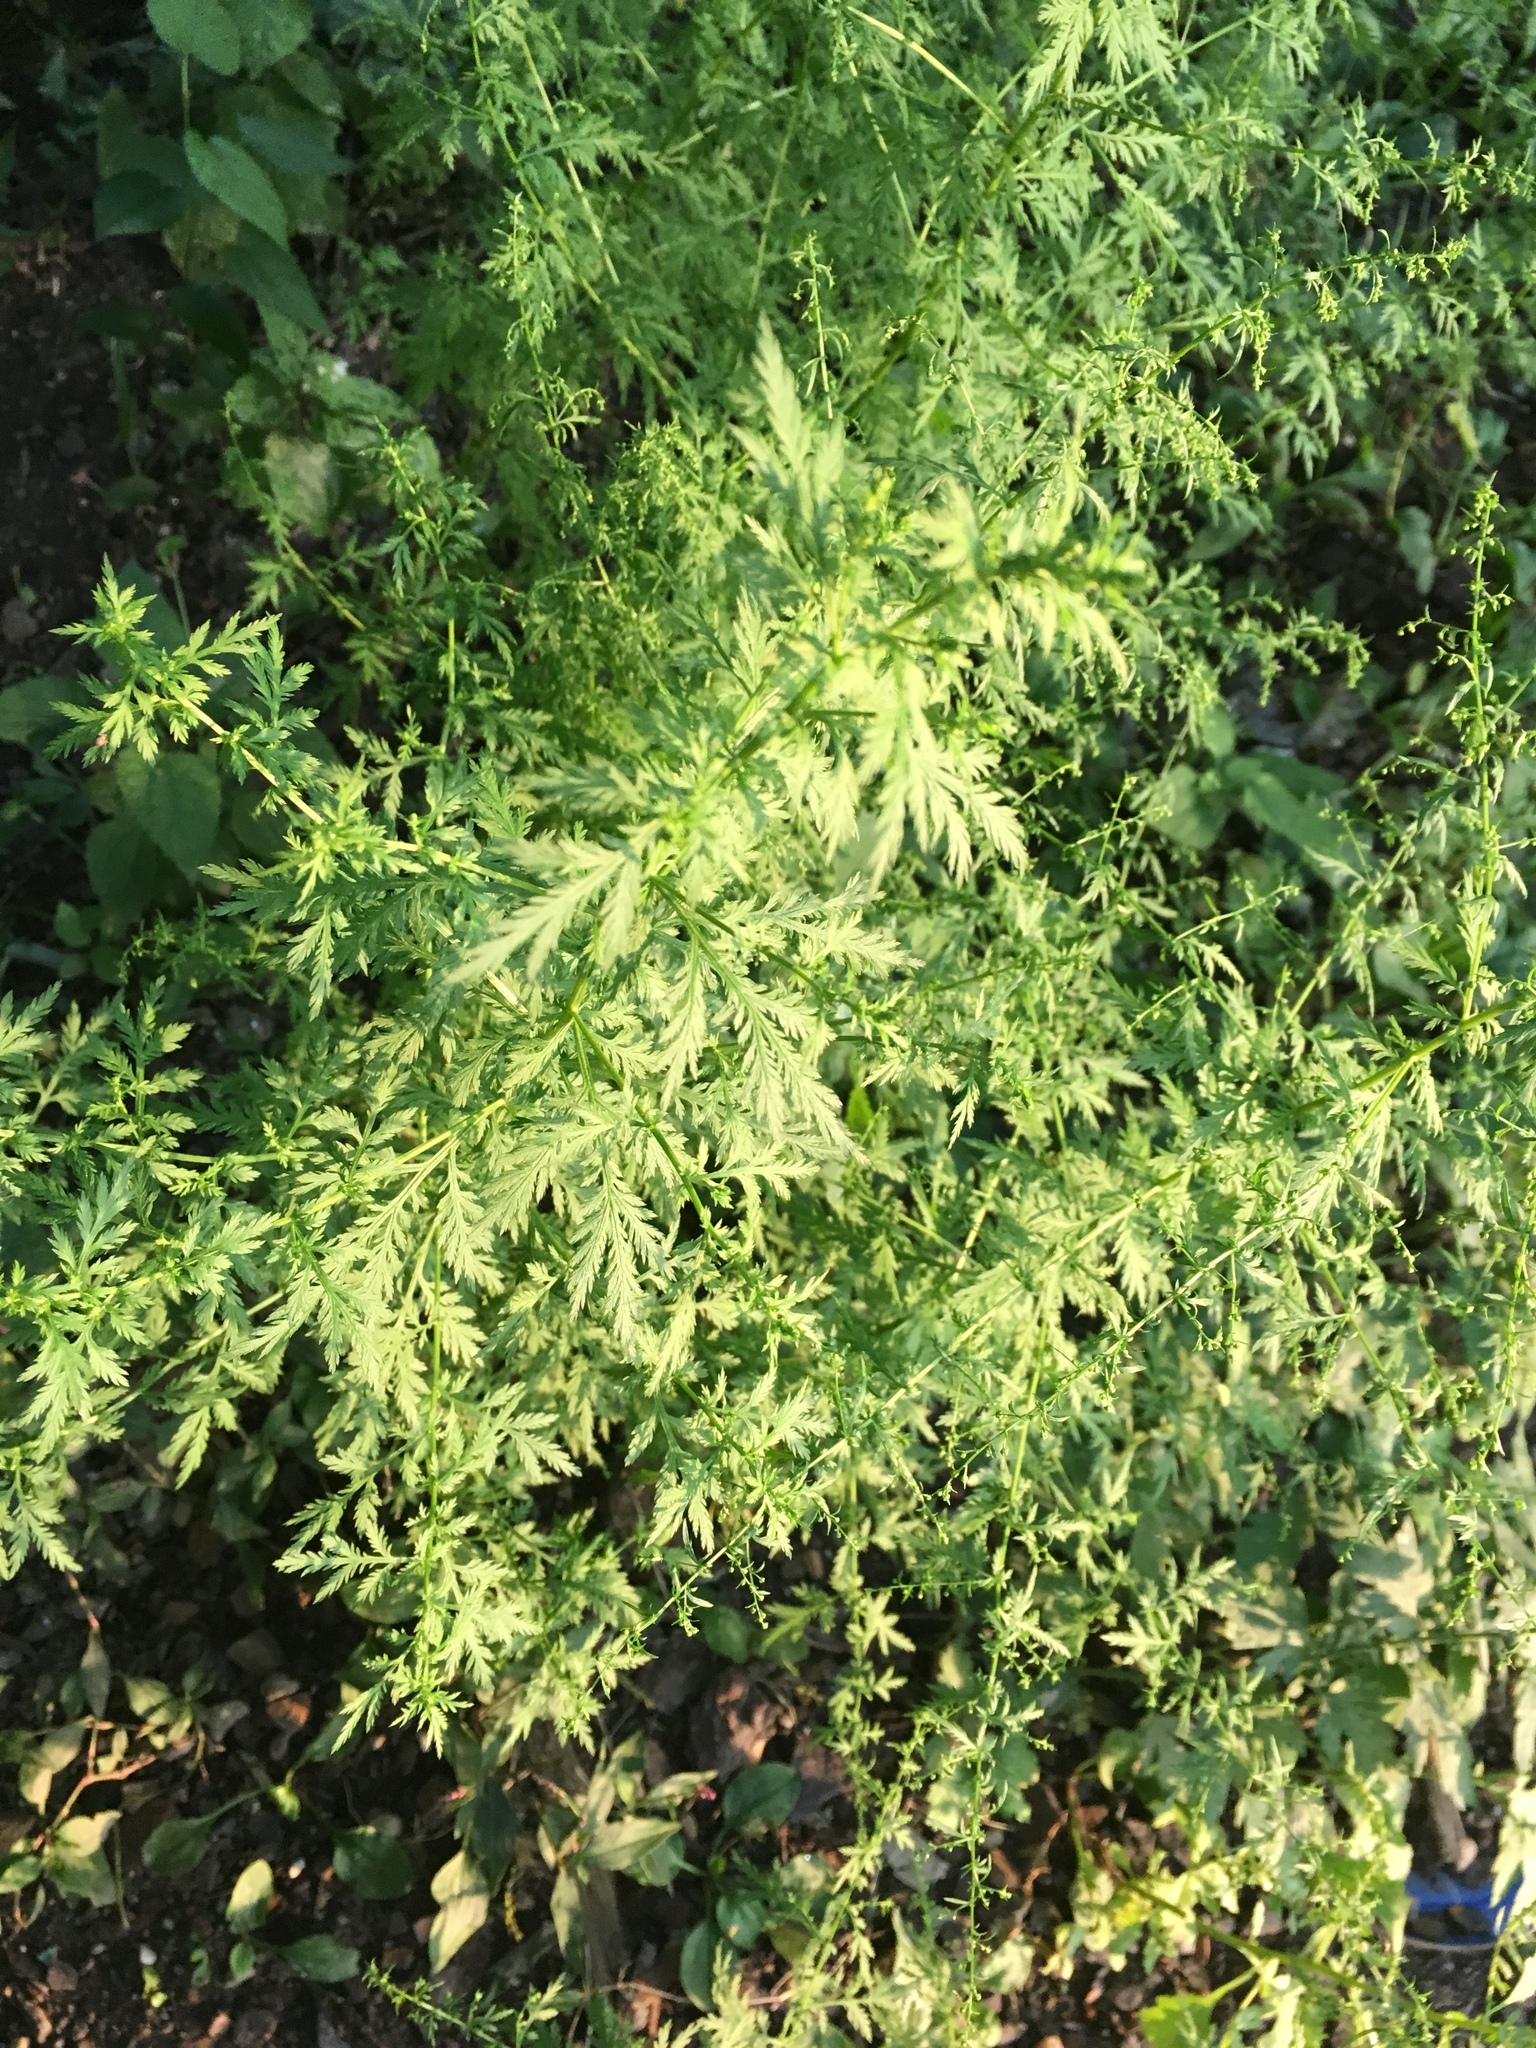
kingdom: Plantae
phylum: Tracheophyta
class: Magnoliopsida
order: Asterales
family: Asteraceae
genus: Artemisia
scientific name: Artemisia annua
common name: Sweet sagewort
